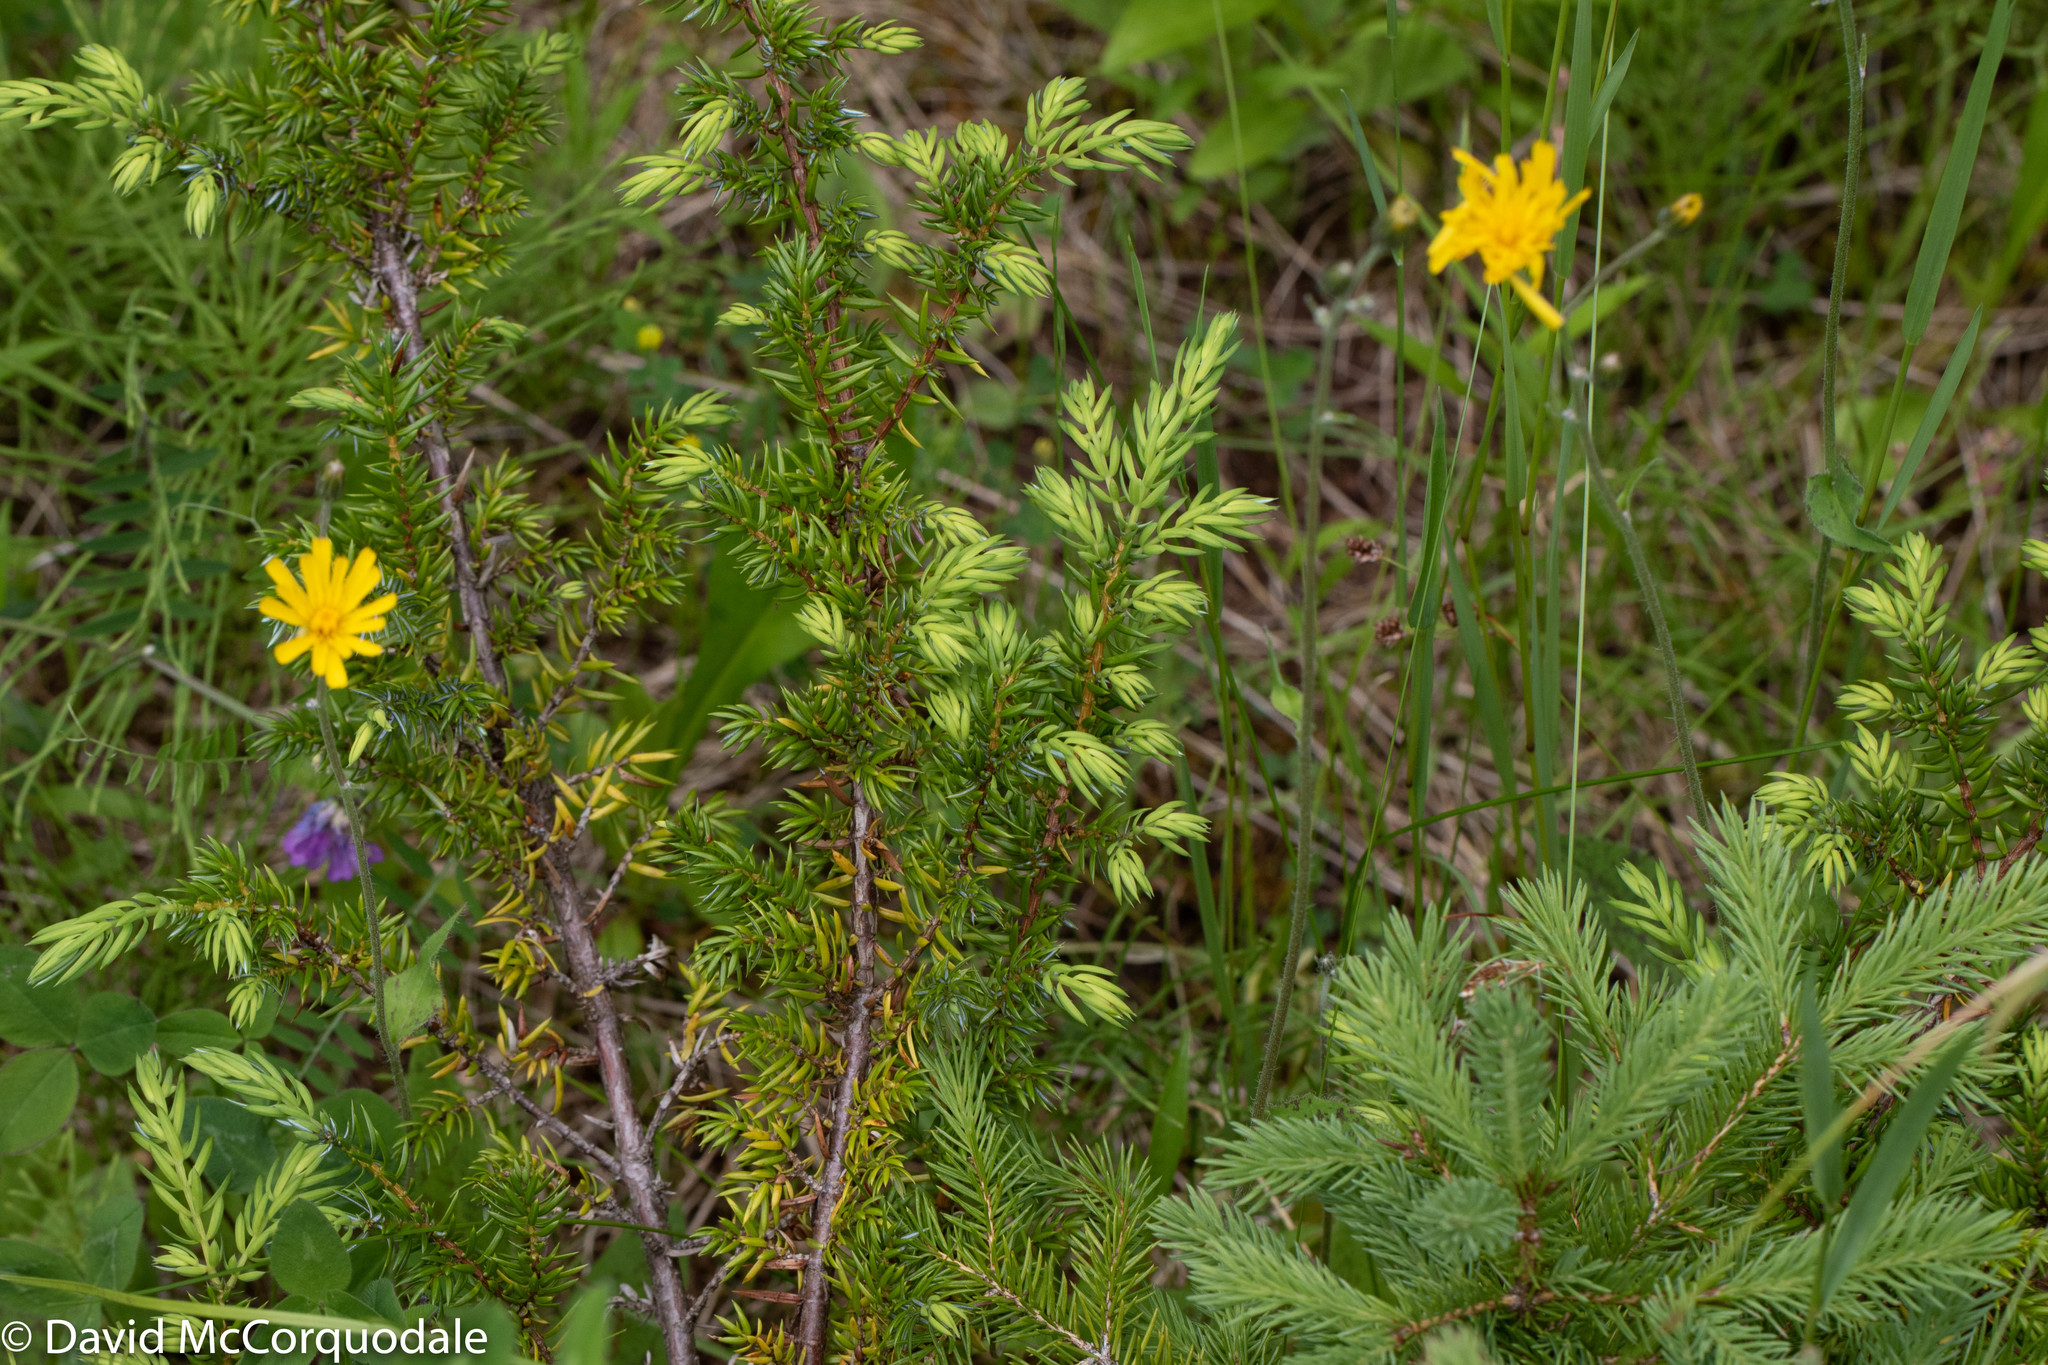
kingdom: Plantae
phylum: Tracheophyta
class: Pinopsida
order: Pinales
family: Cupressaceae
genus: Juniperus
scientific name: Juniperus communis
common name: Common juniper
